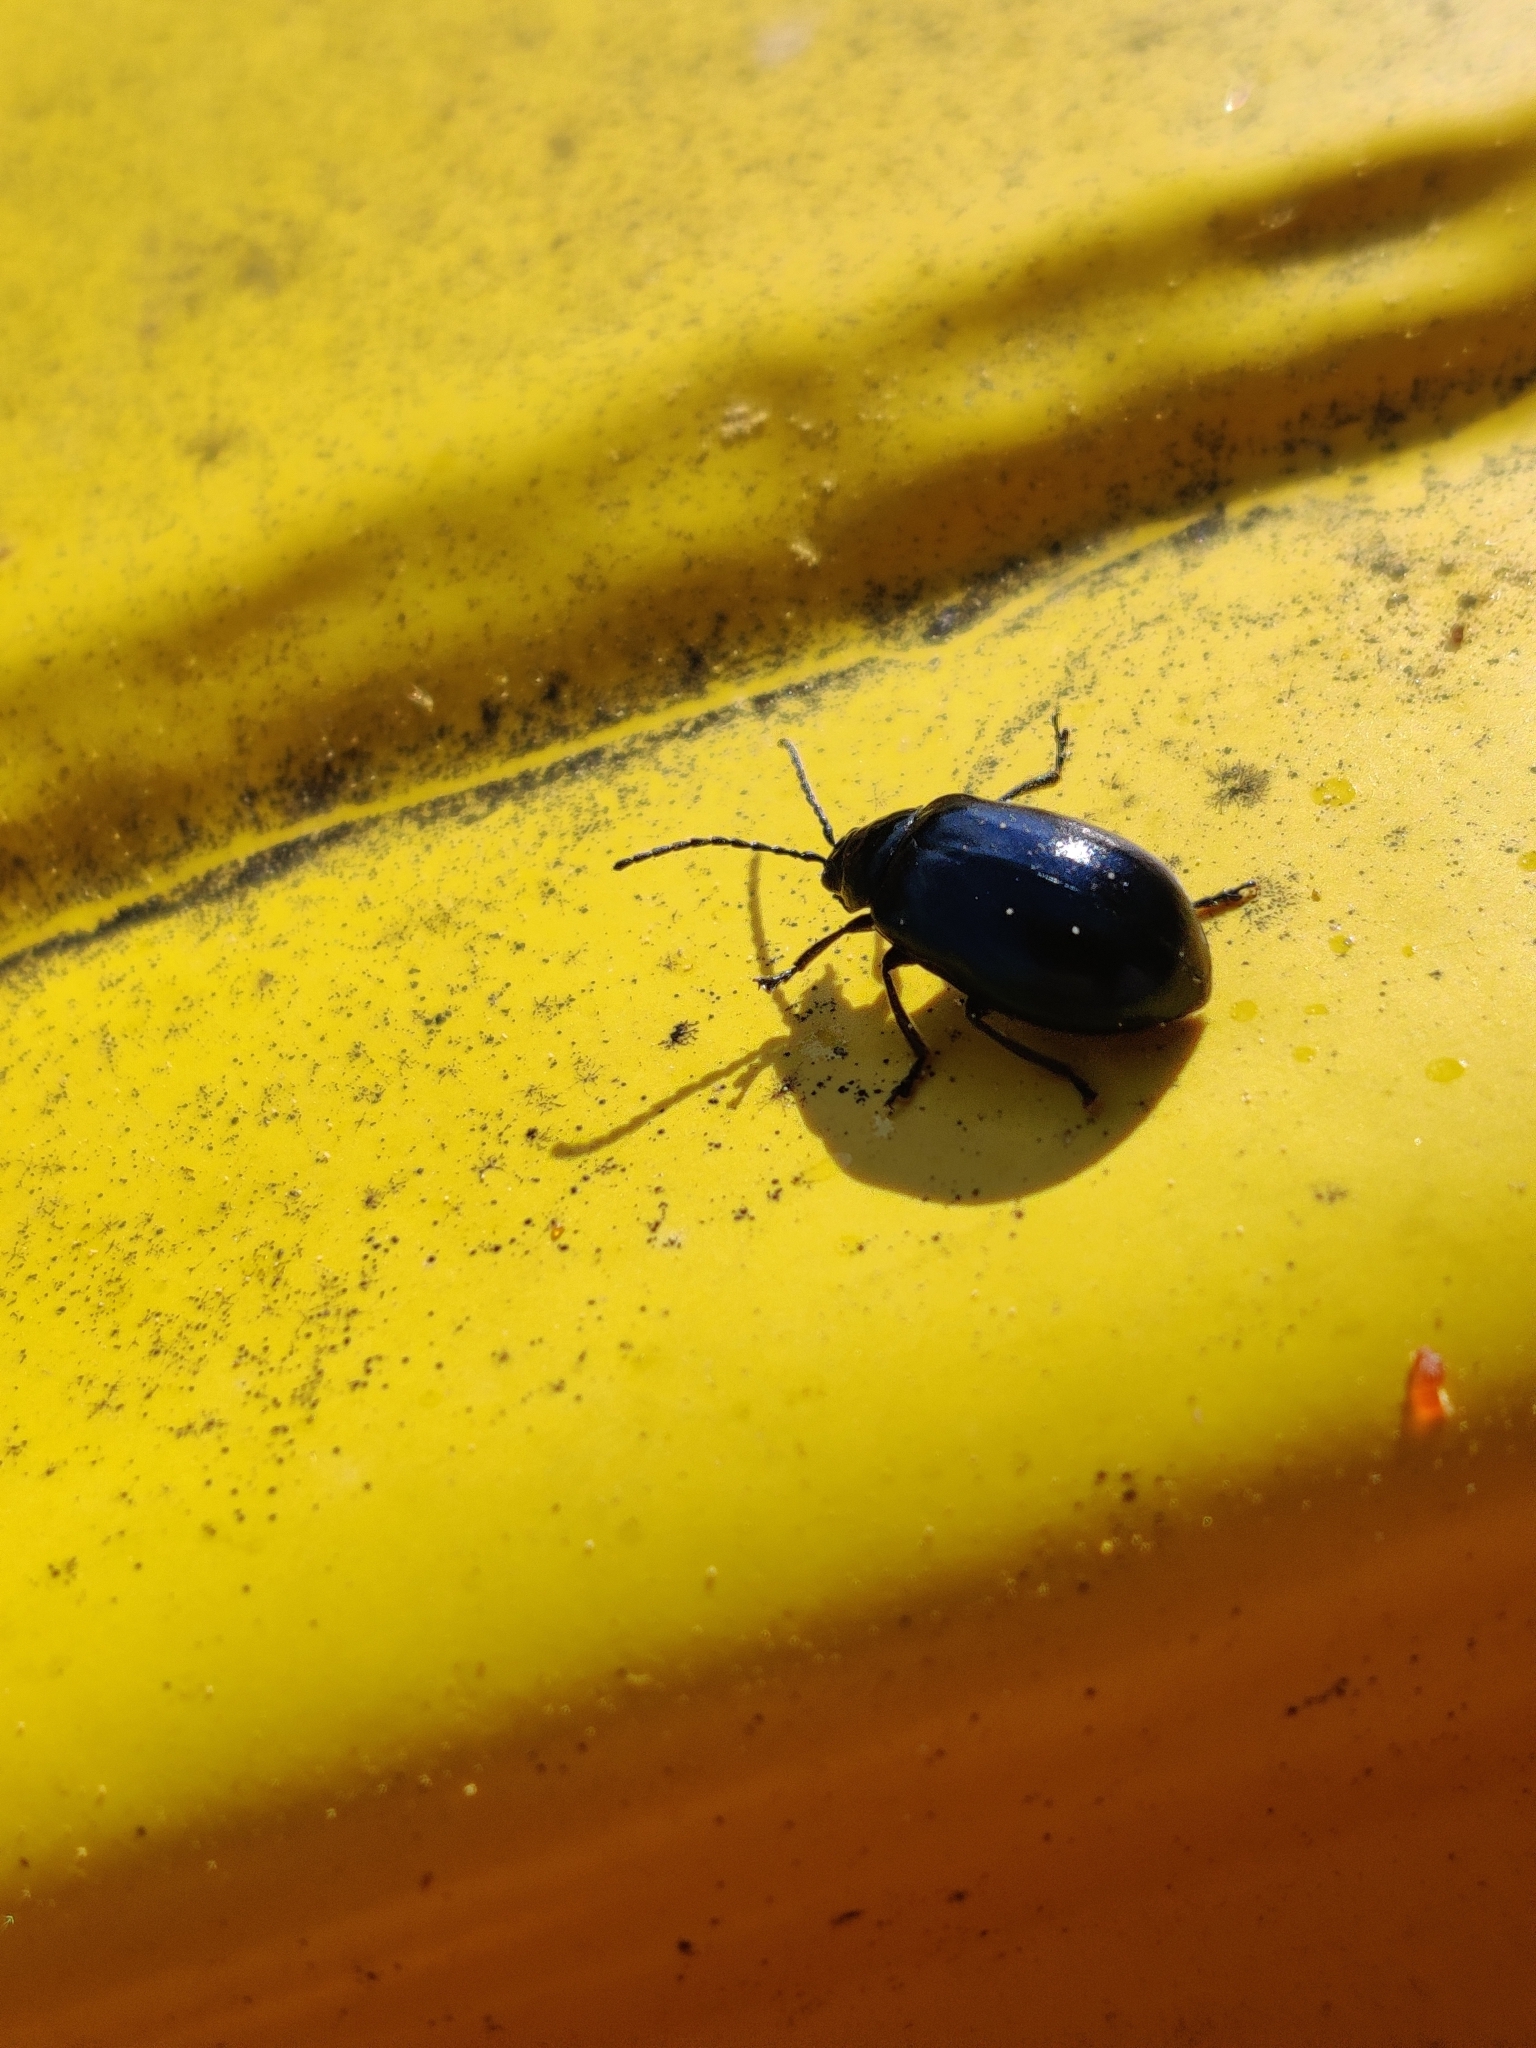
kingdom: Animalia
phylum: Arthropoda
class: Insecta
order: Coleoptera
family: Chrysomelidae
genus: Agelastica
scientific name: Agelastica alni
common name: Alder leaf beetle
